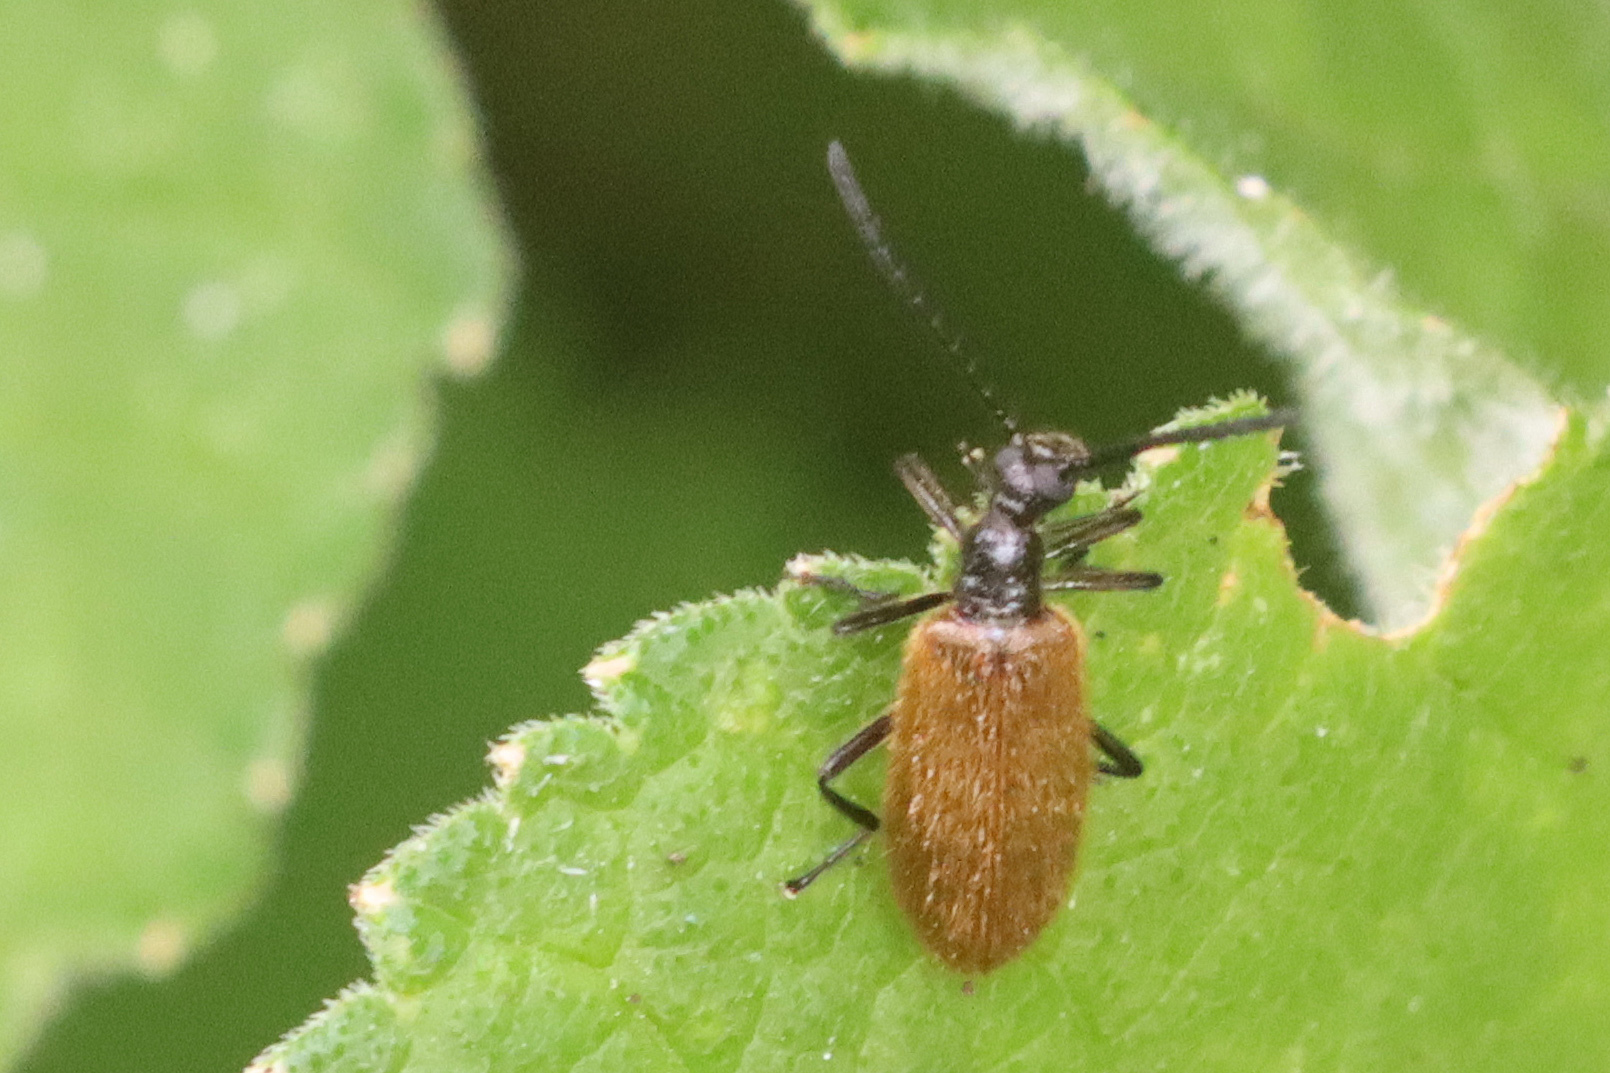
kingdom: Animalia
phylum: Arthropoda
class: Insecta
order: Coleoptera
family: Tenebrionidae
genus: Lagria
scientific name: Lagria hirta
